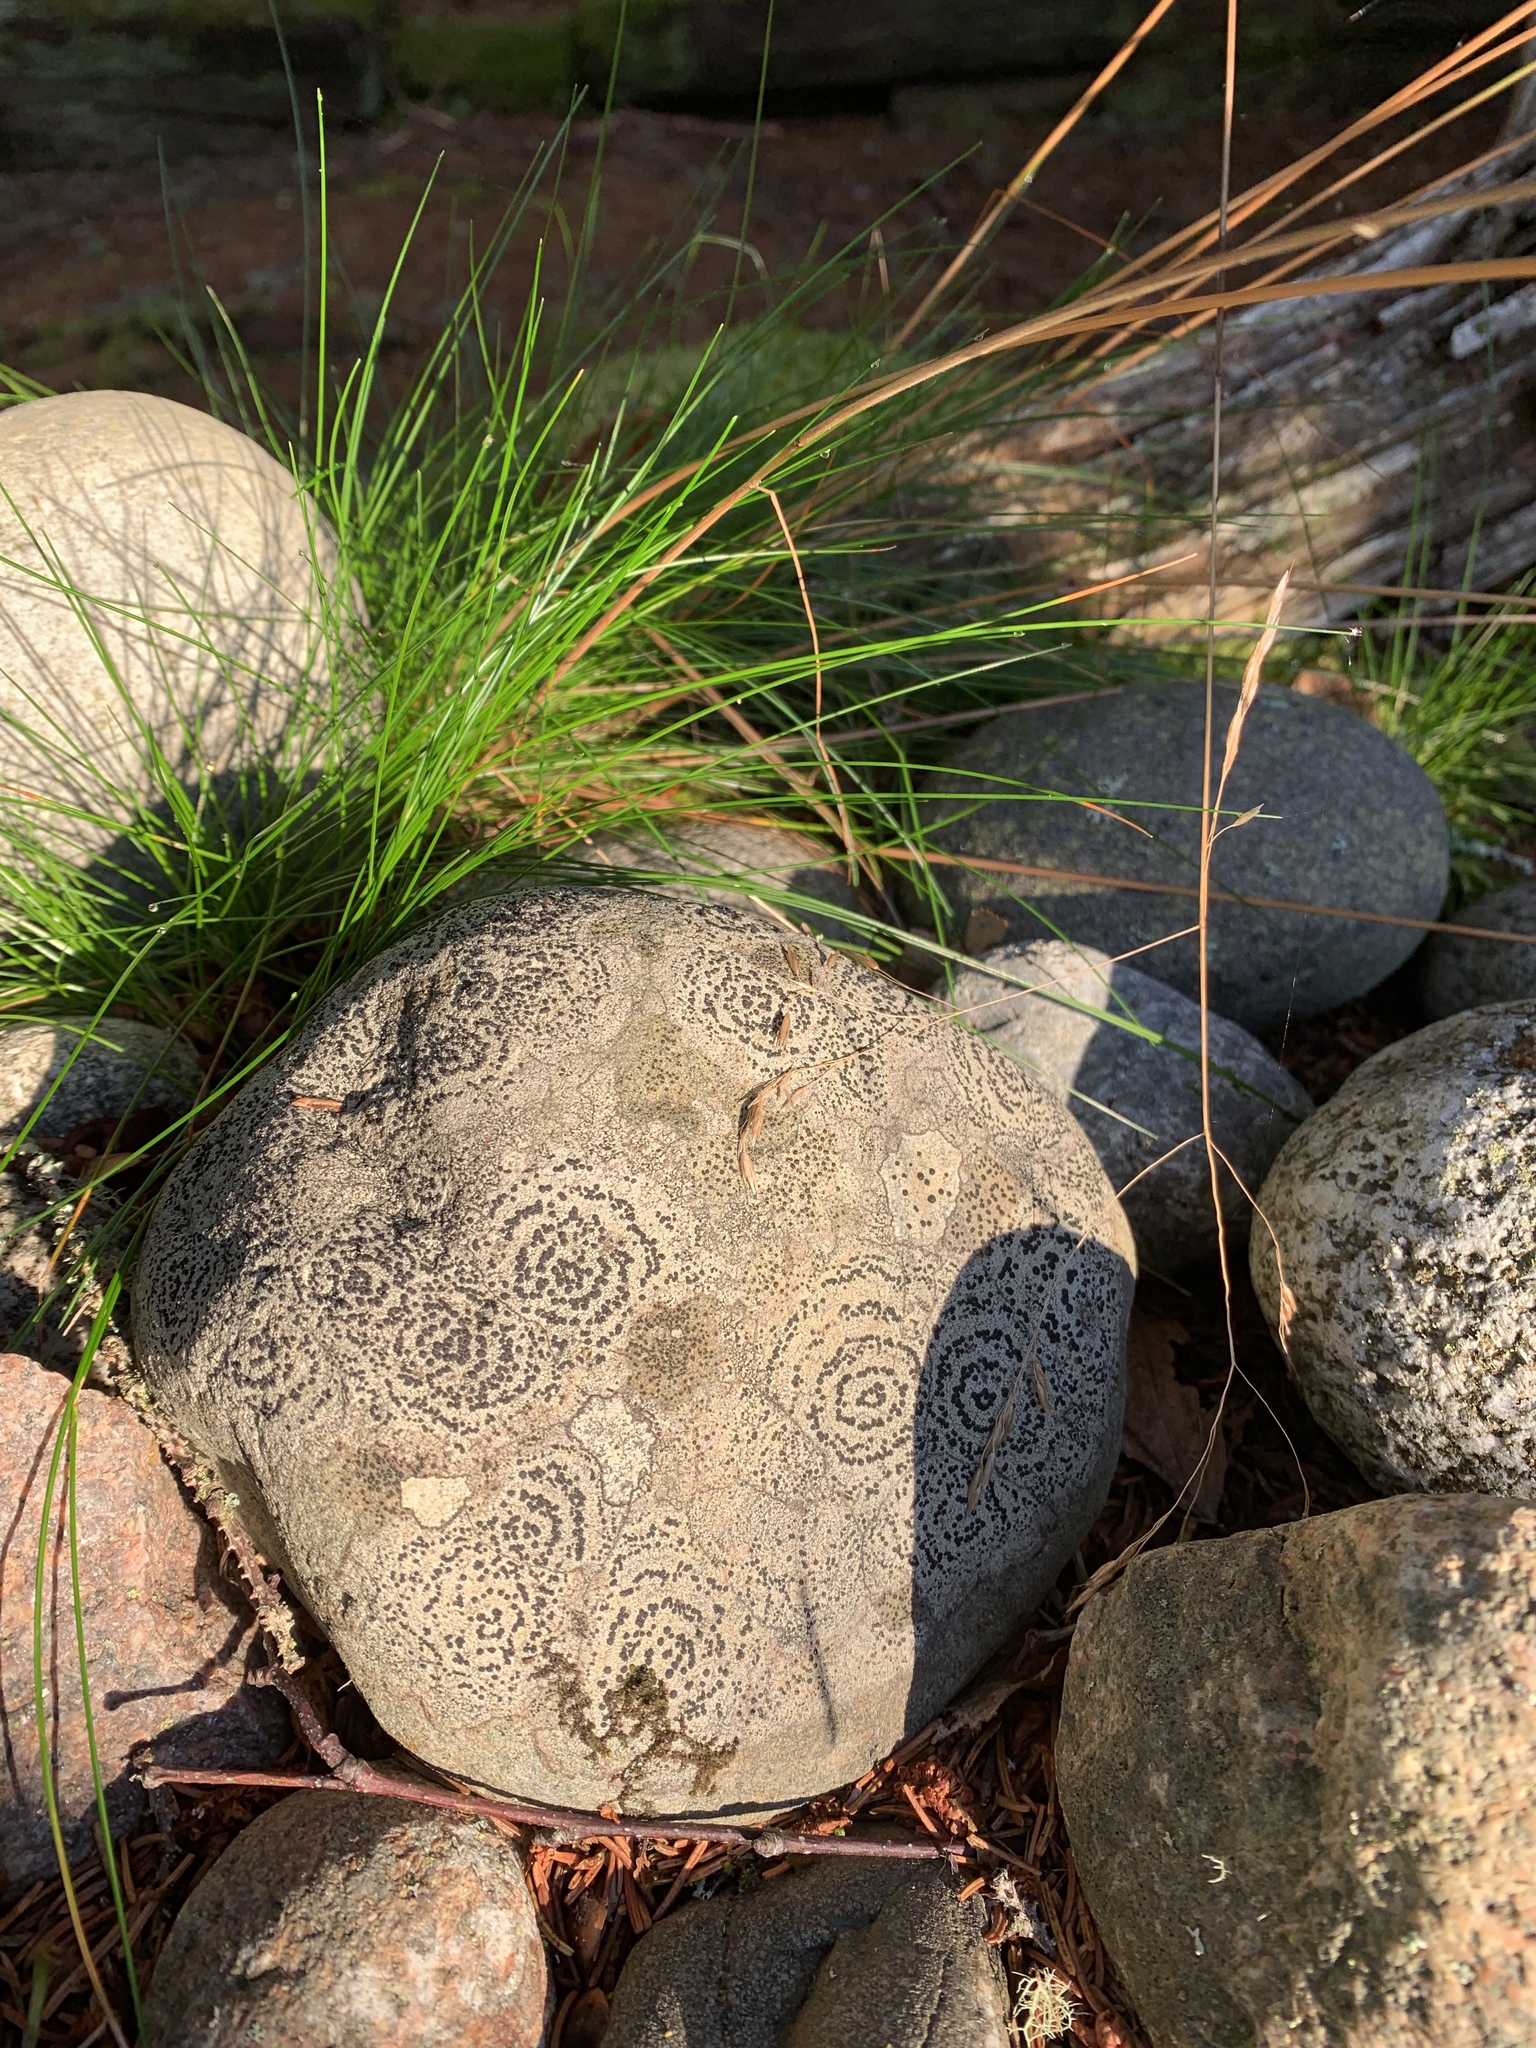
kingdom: Fungi
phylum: Ascomycota
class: Lecanoromycetes
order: Lecideales
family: Lecideaceae
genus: Porpidia
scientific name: Porpidia crustulata
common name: Concentric boulder lichen
